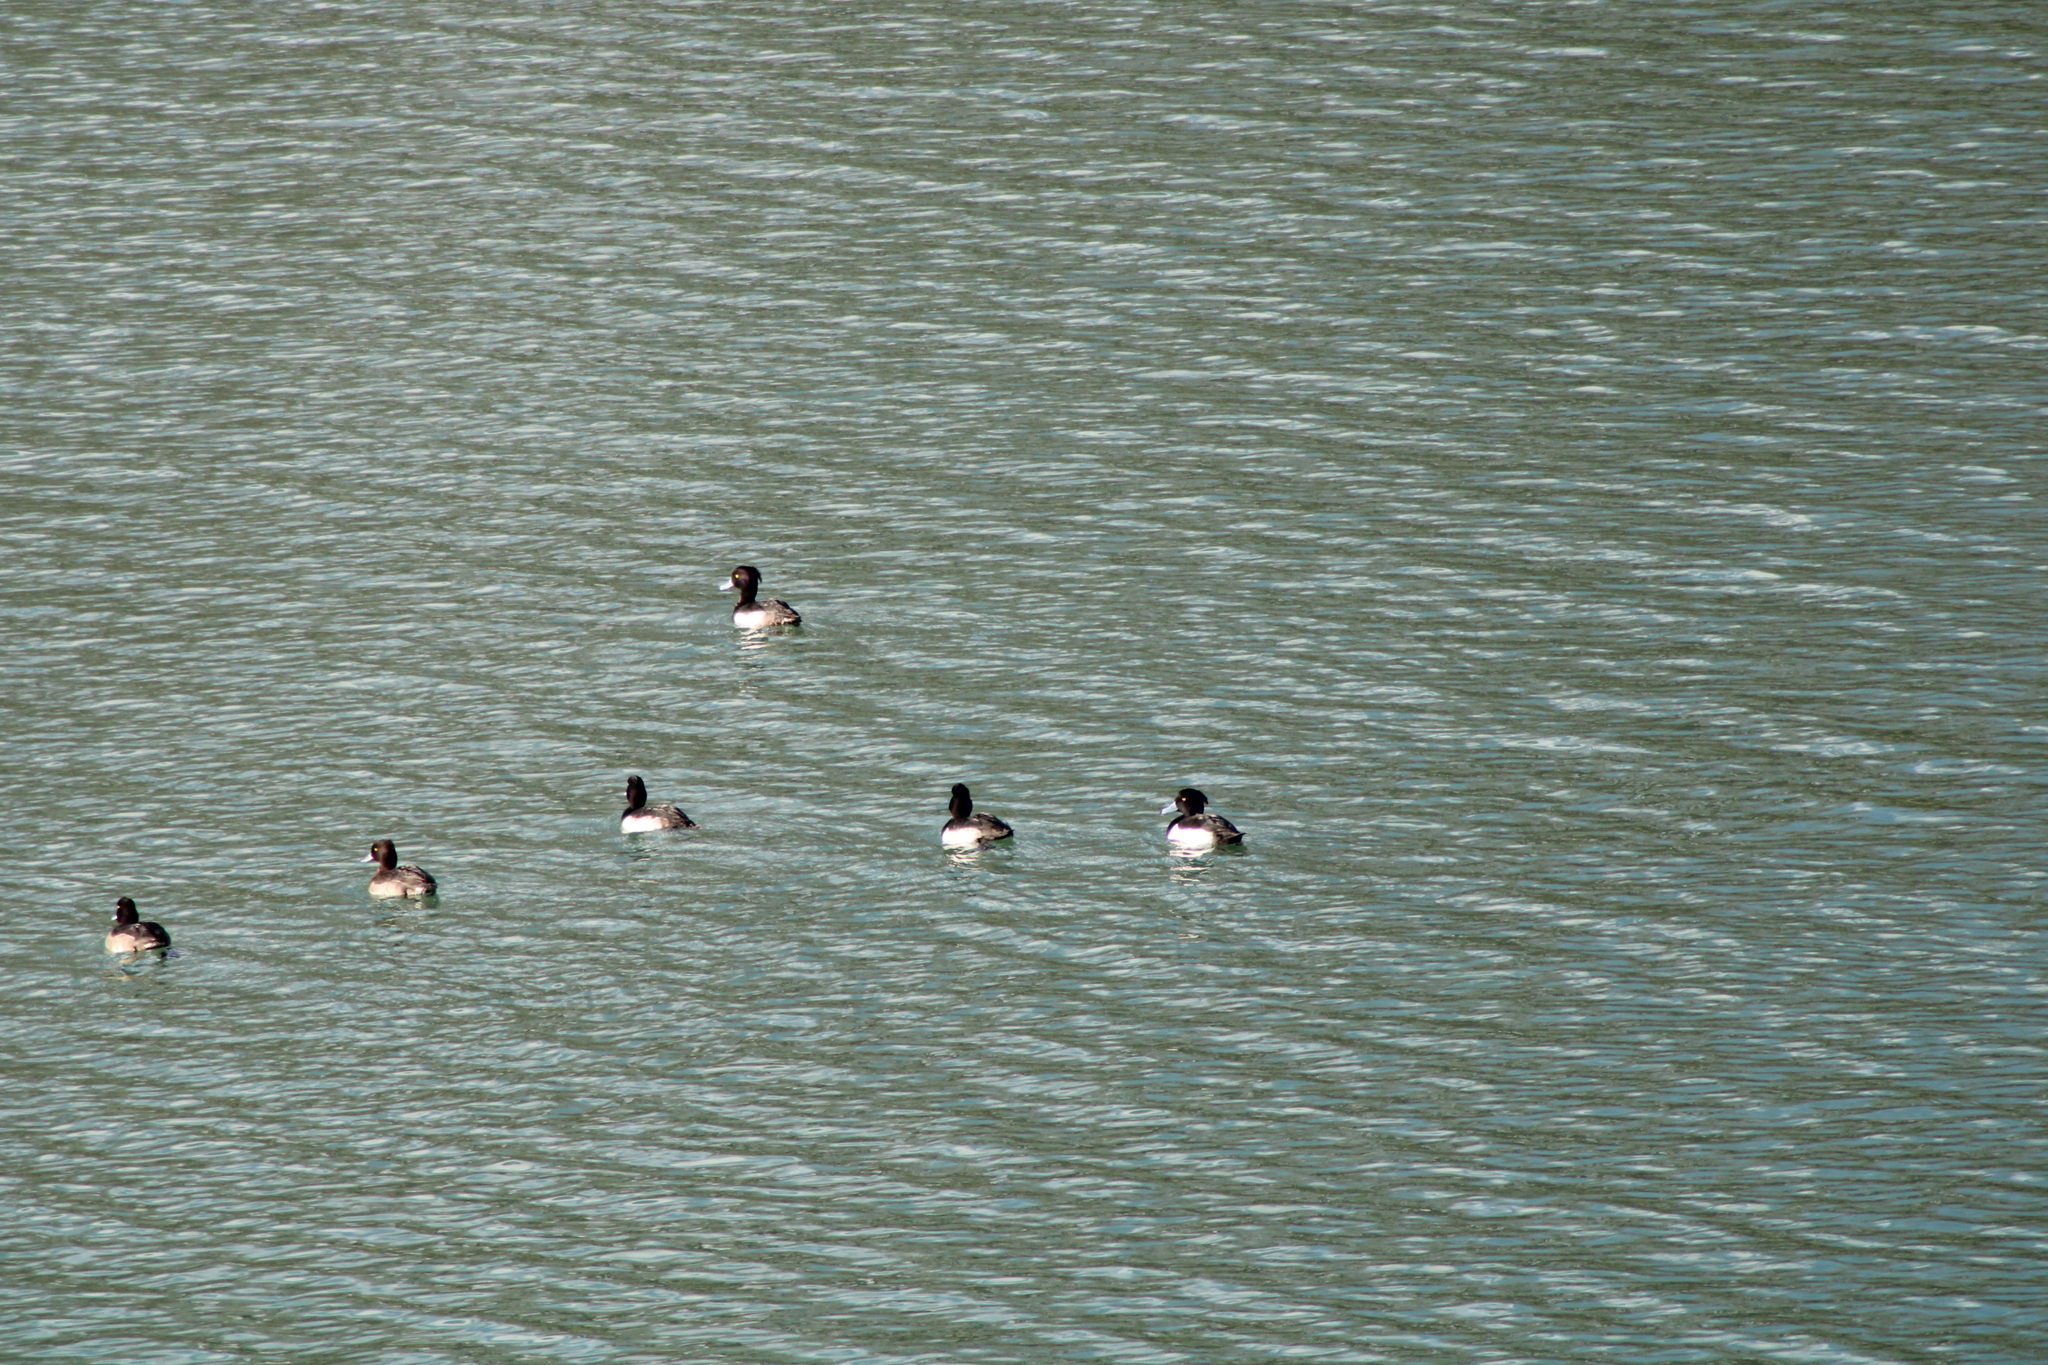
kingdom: Animalia
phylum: Chordata
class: Aves
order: Anseriformes
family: Anatidae
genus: Aythya
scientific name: Aythya fuligula
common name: Tufted duck
